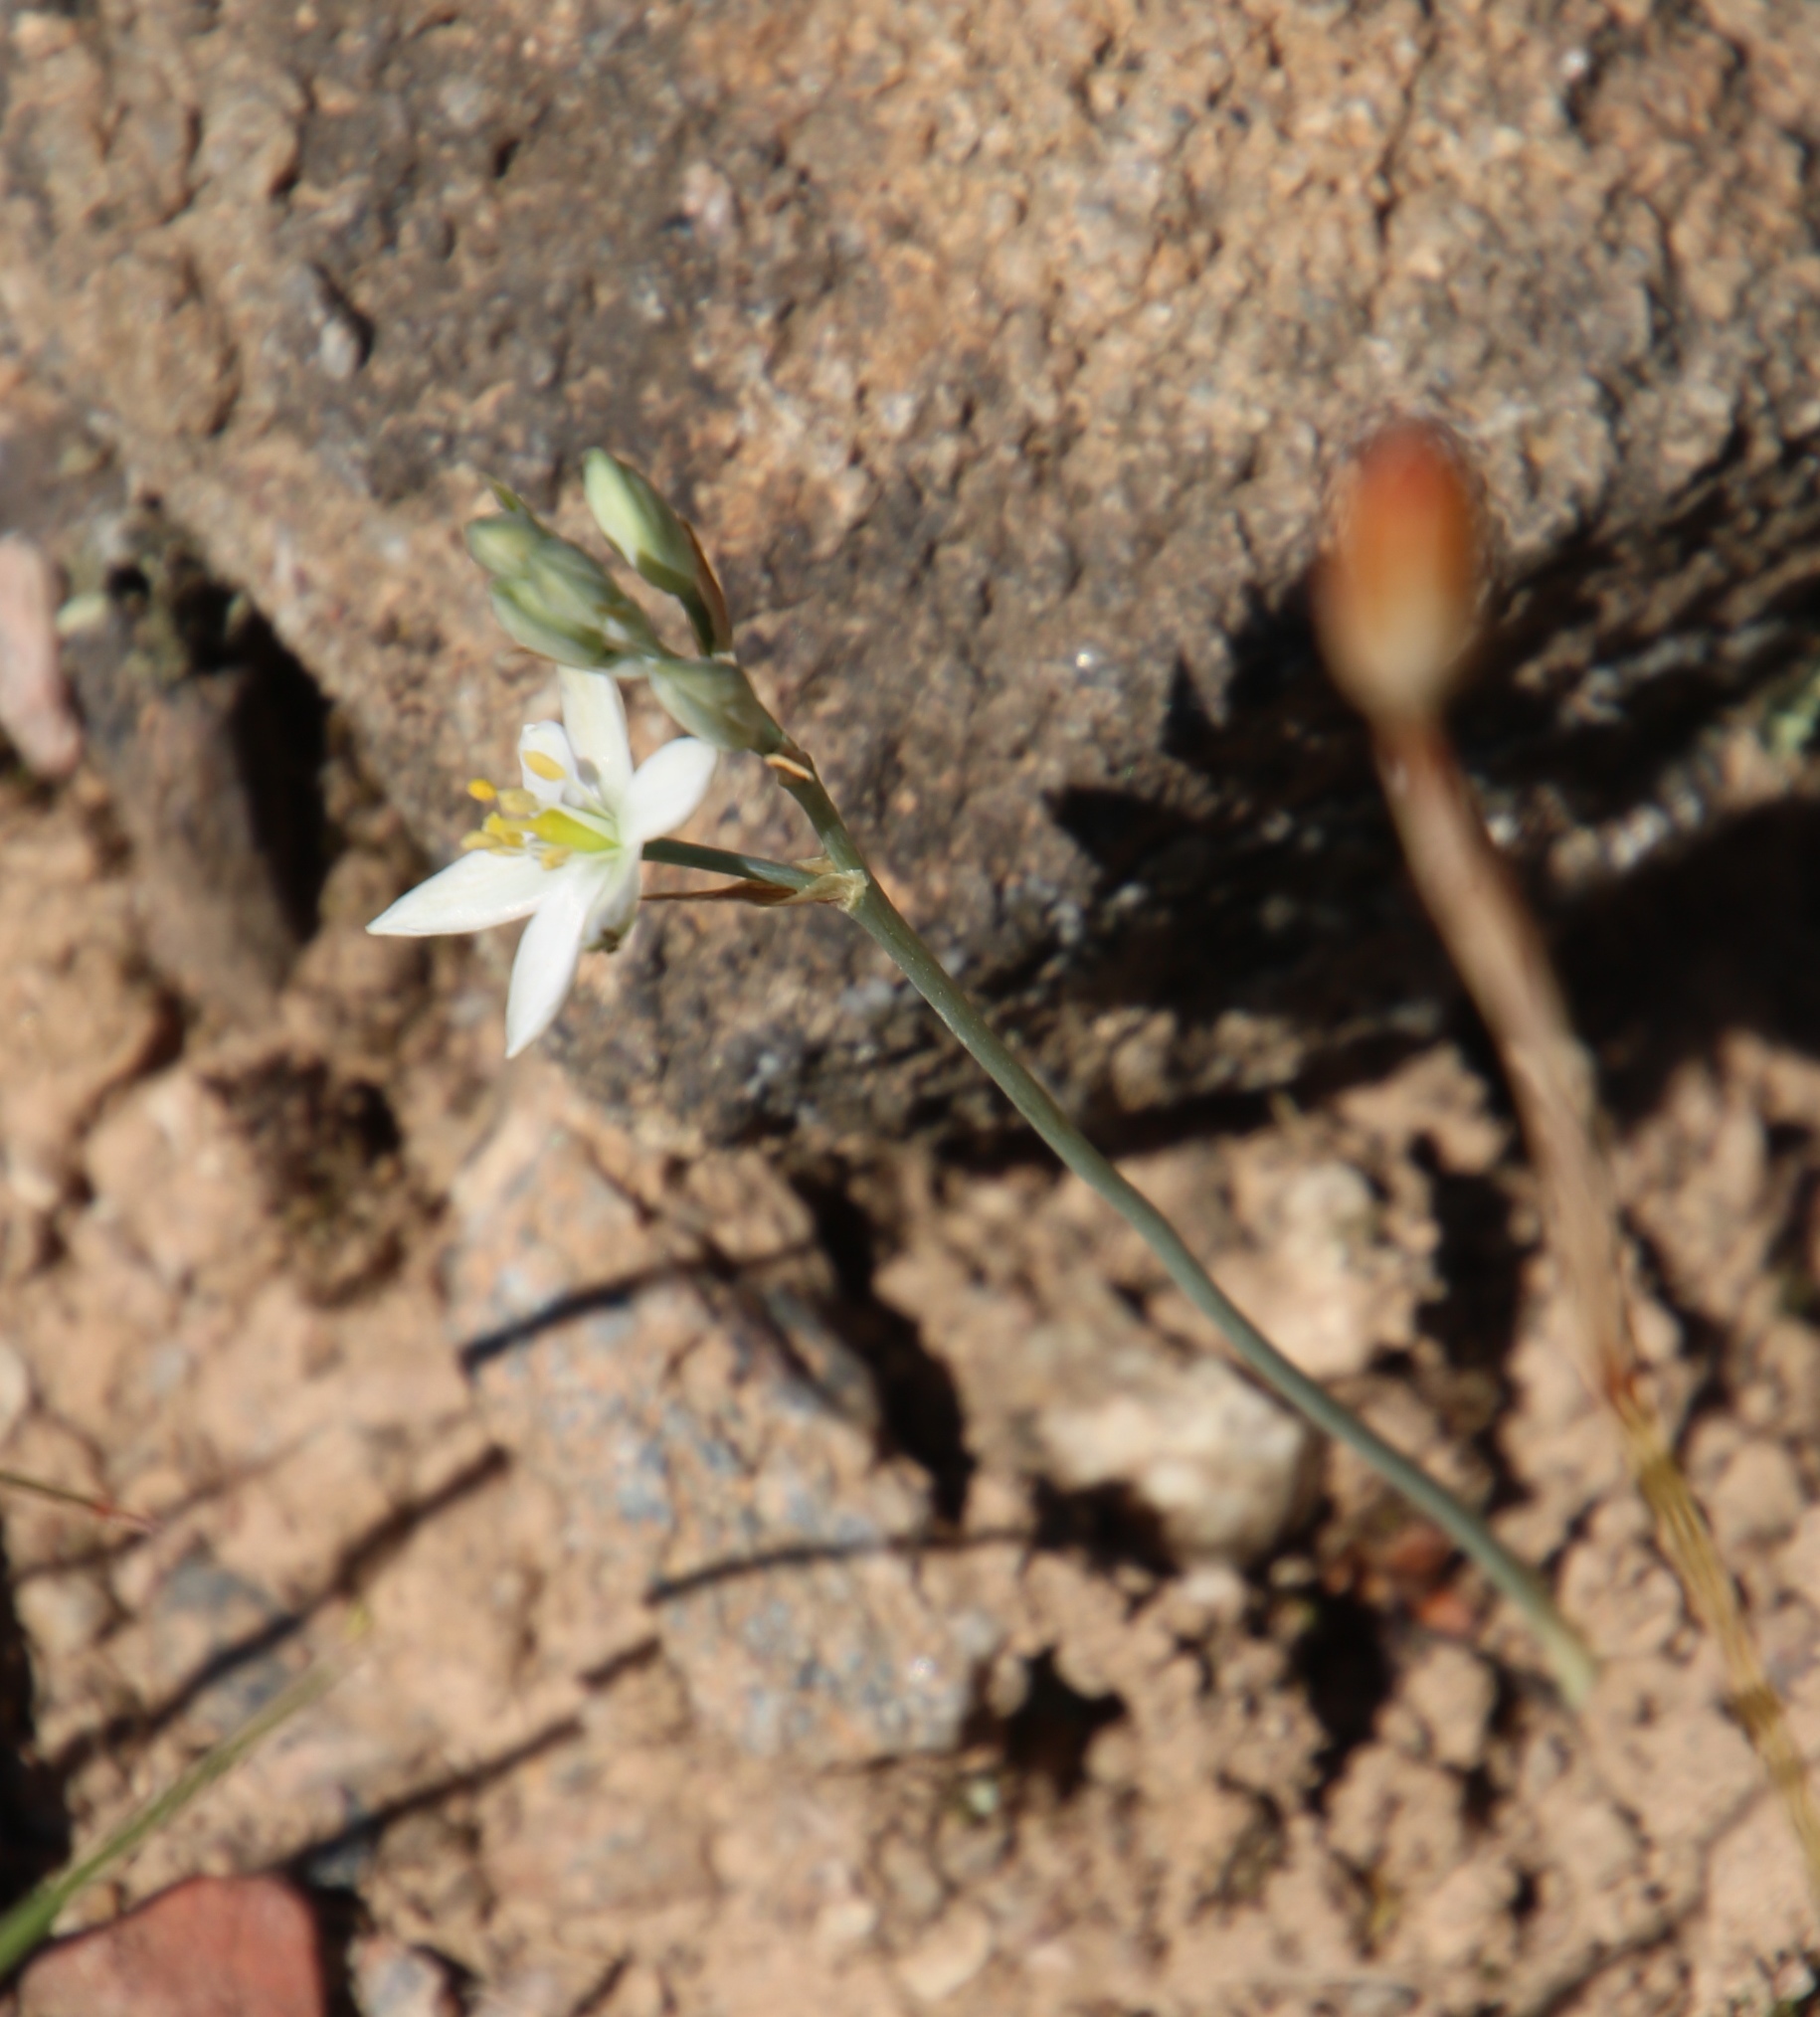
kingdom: Plantae
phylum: Tracheophyta
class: Liliopsida
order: Asparagales
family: Asparagaceae
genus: Ornithogalum
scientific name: Ornithogalum hispidum
